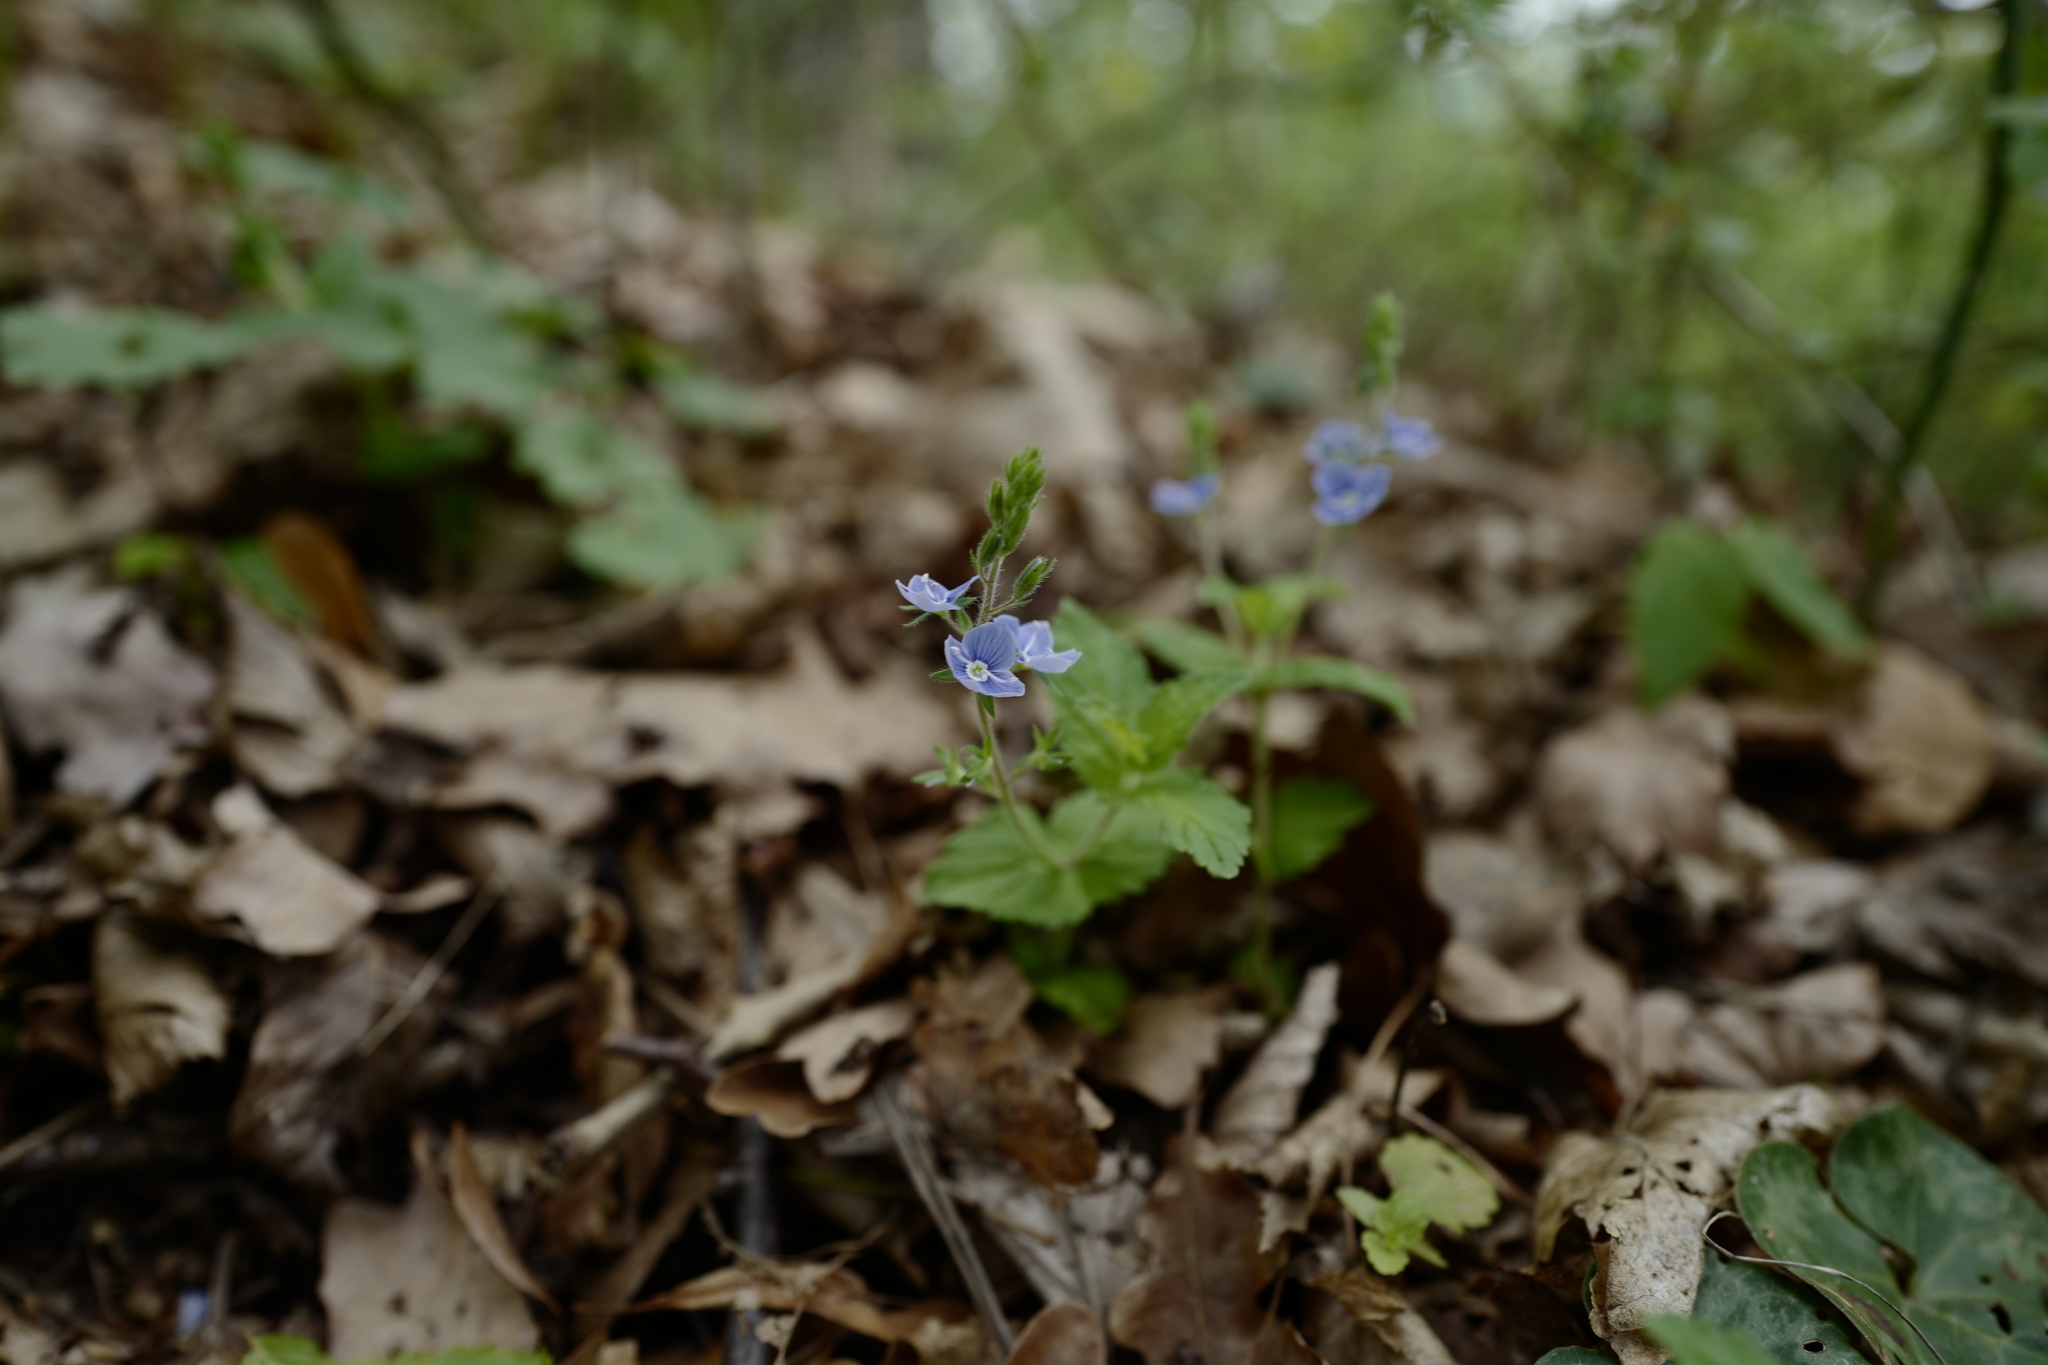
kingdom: Plantae
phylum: Tracheophyta
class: Magnoliopsida
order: Lamiales
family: Plantaginaceae
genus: Veronica
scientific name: Veronica chamaedrys
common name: Germander speedwell
